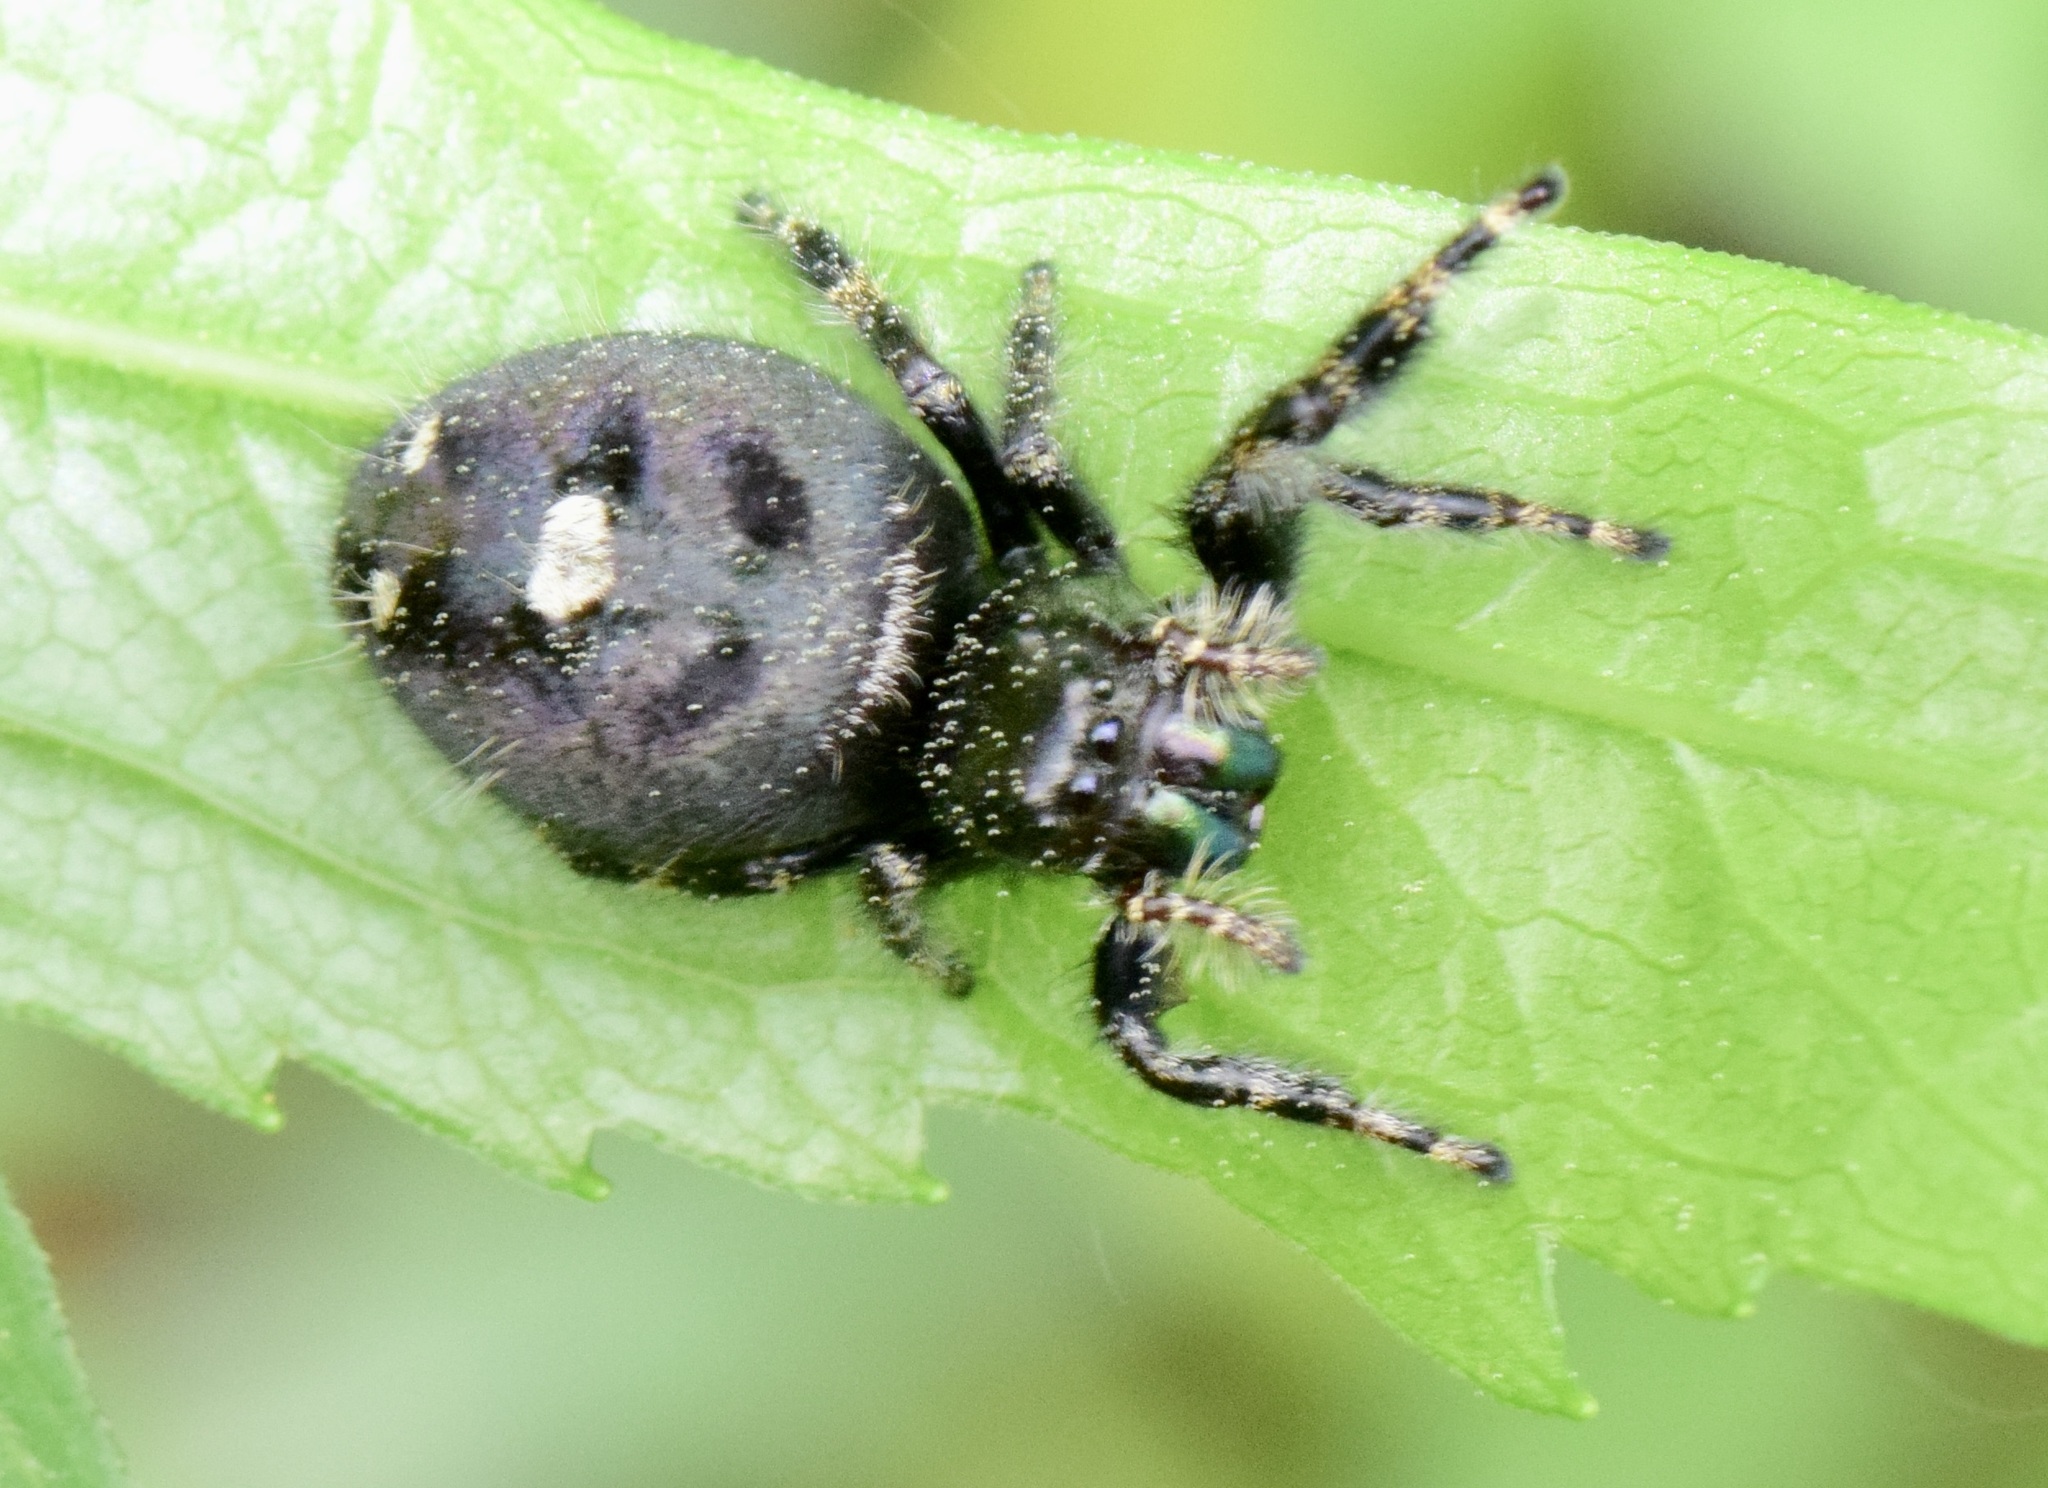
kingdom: Animalia
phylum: Arthropoda
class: Arachnida
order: Araneae
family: Salticidae
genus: Phidippus
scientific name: Phidippus audax
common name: Bold jumper
